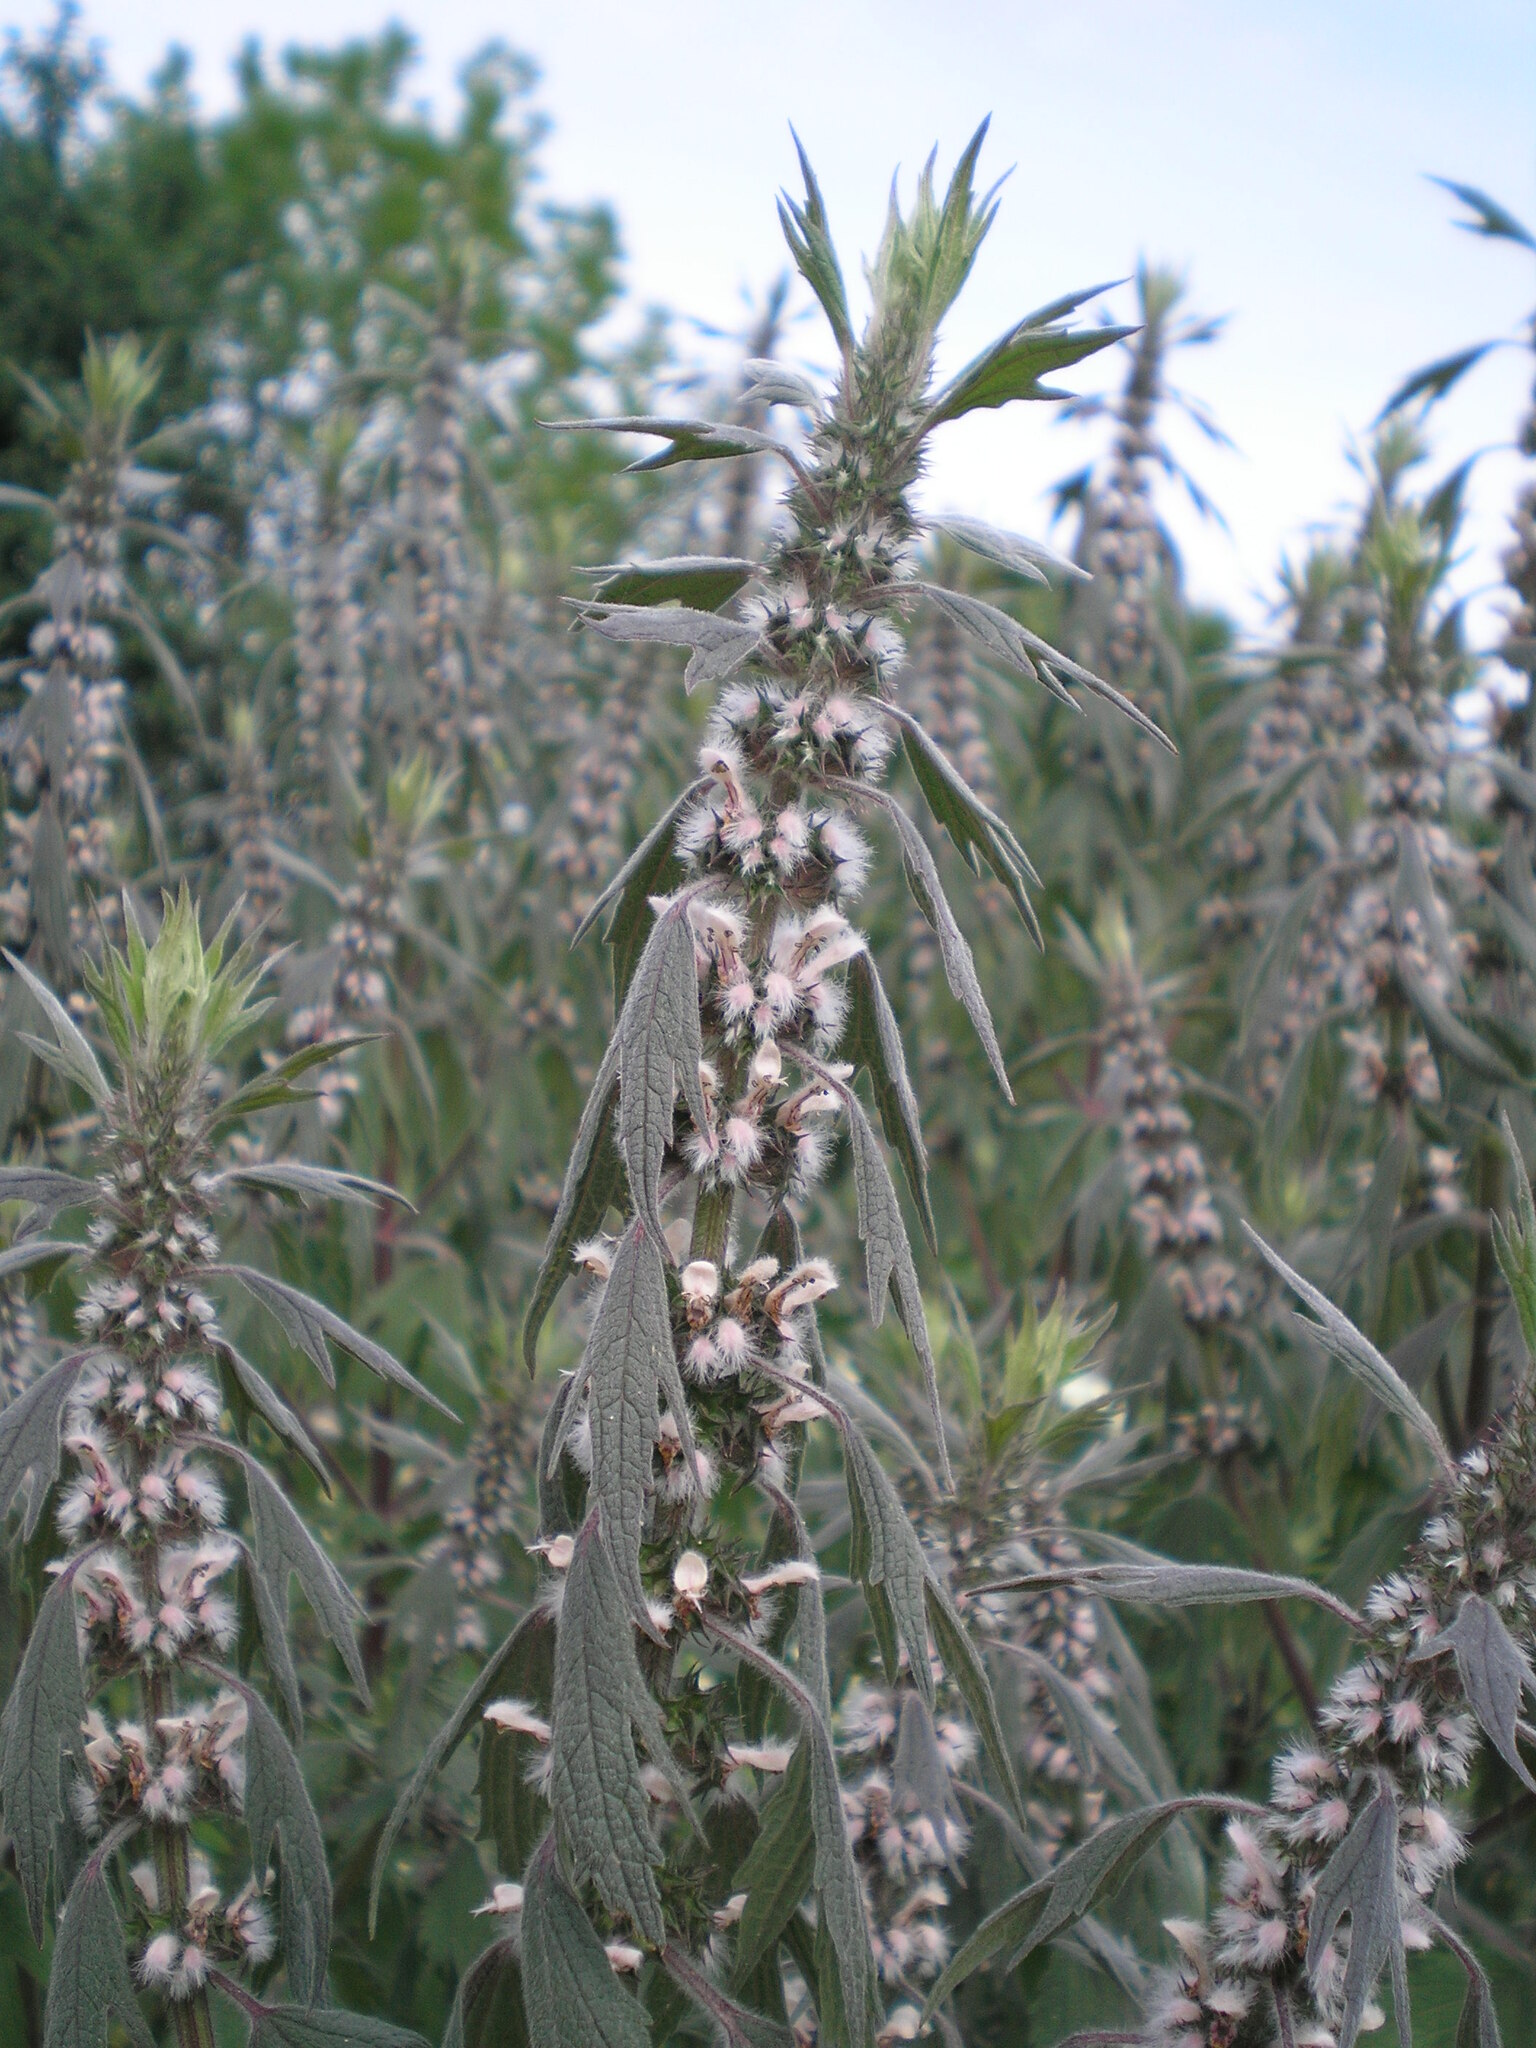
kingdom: Plantae
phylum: Tracheophyta
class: Magnoliopsida
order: Lamiales
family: Lamiaceae
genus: Leonurus
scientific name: Leonurus quinquelobatus
